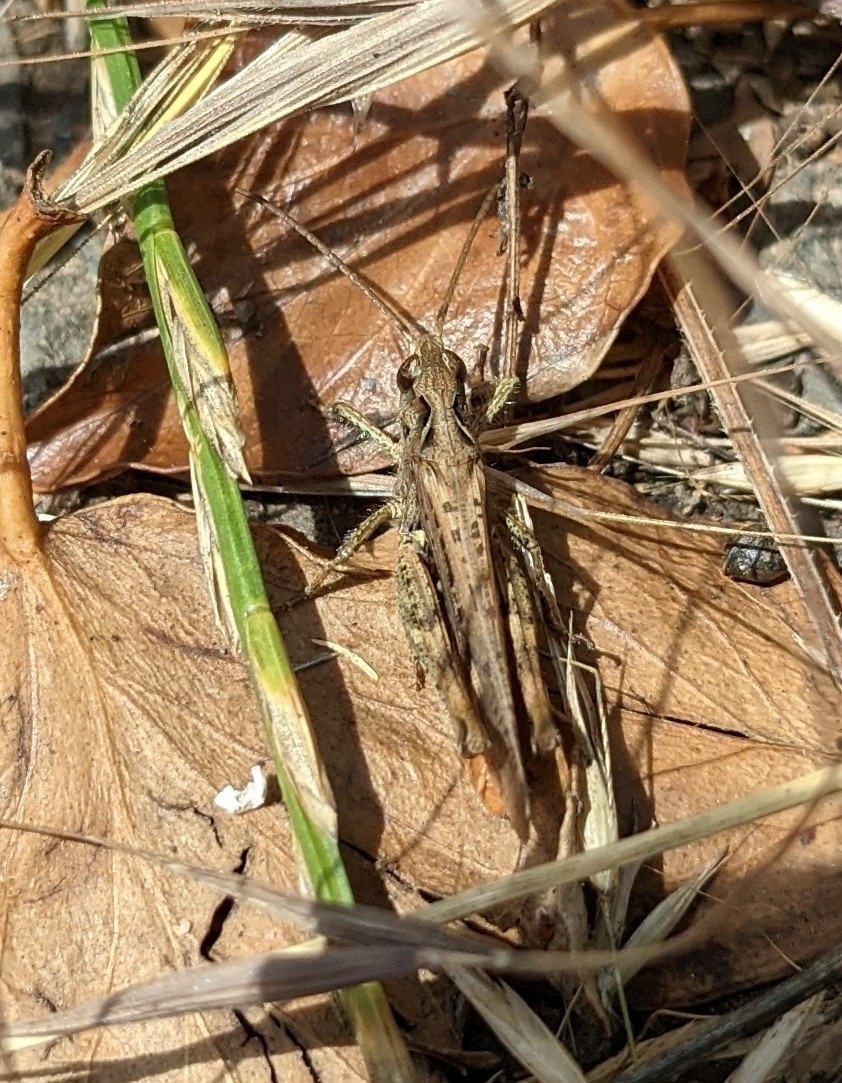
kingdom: Animalia
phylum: Arthropoda
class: Insecta
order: Orthoptera
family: Acrididae
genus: Chorthippus
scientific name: Chorthippus brunneus
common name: Field grasshopper
